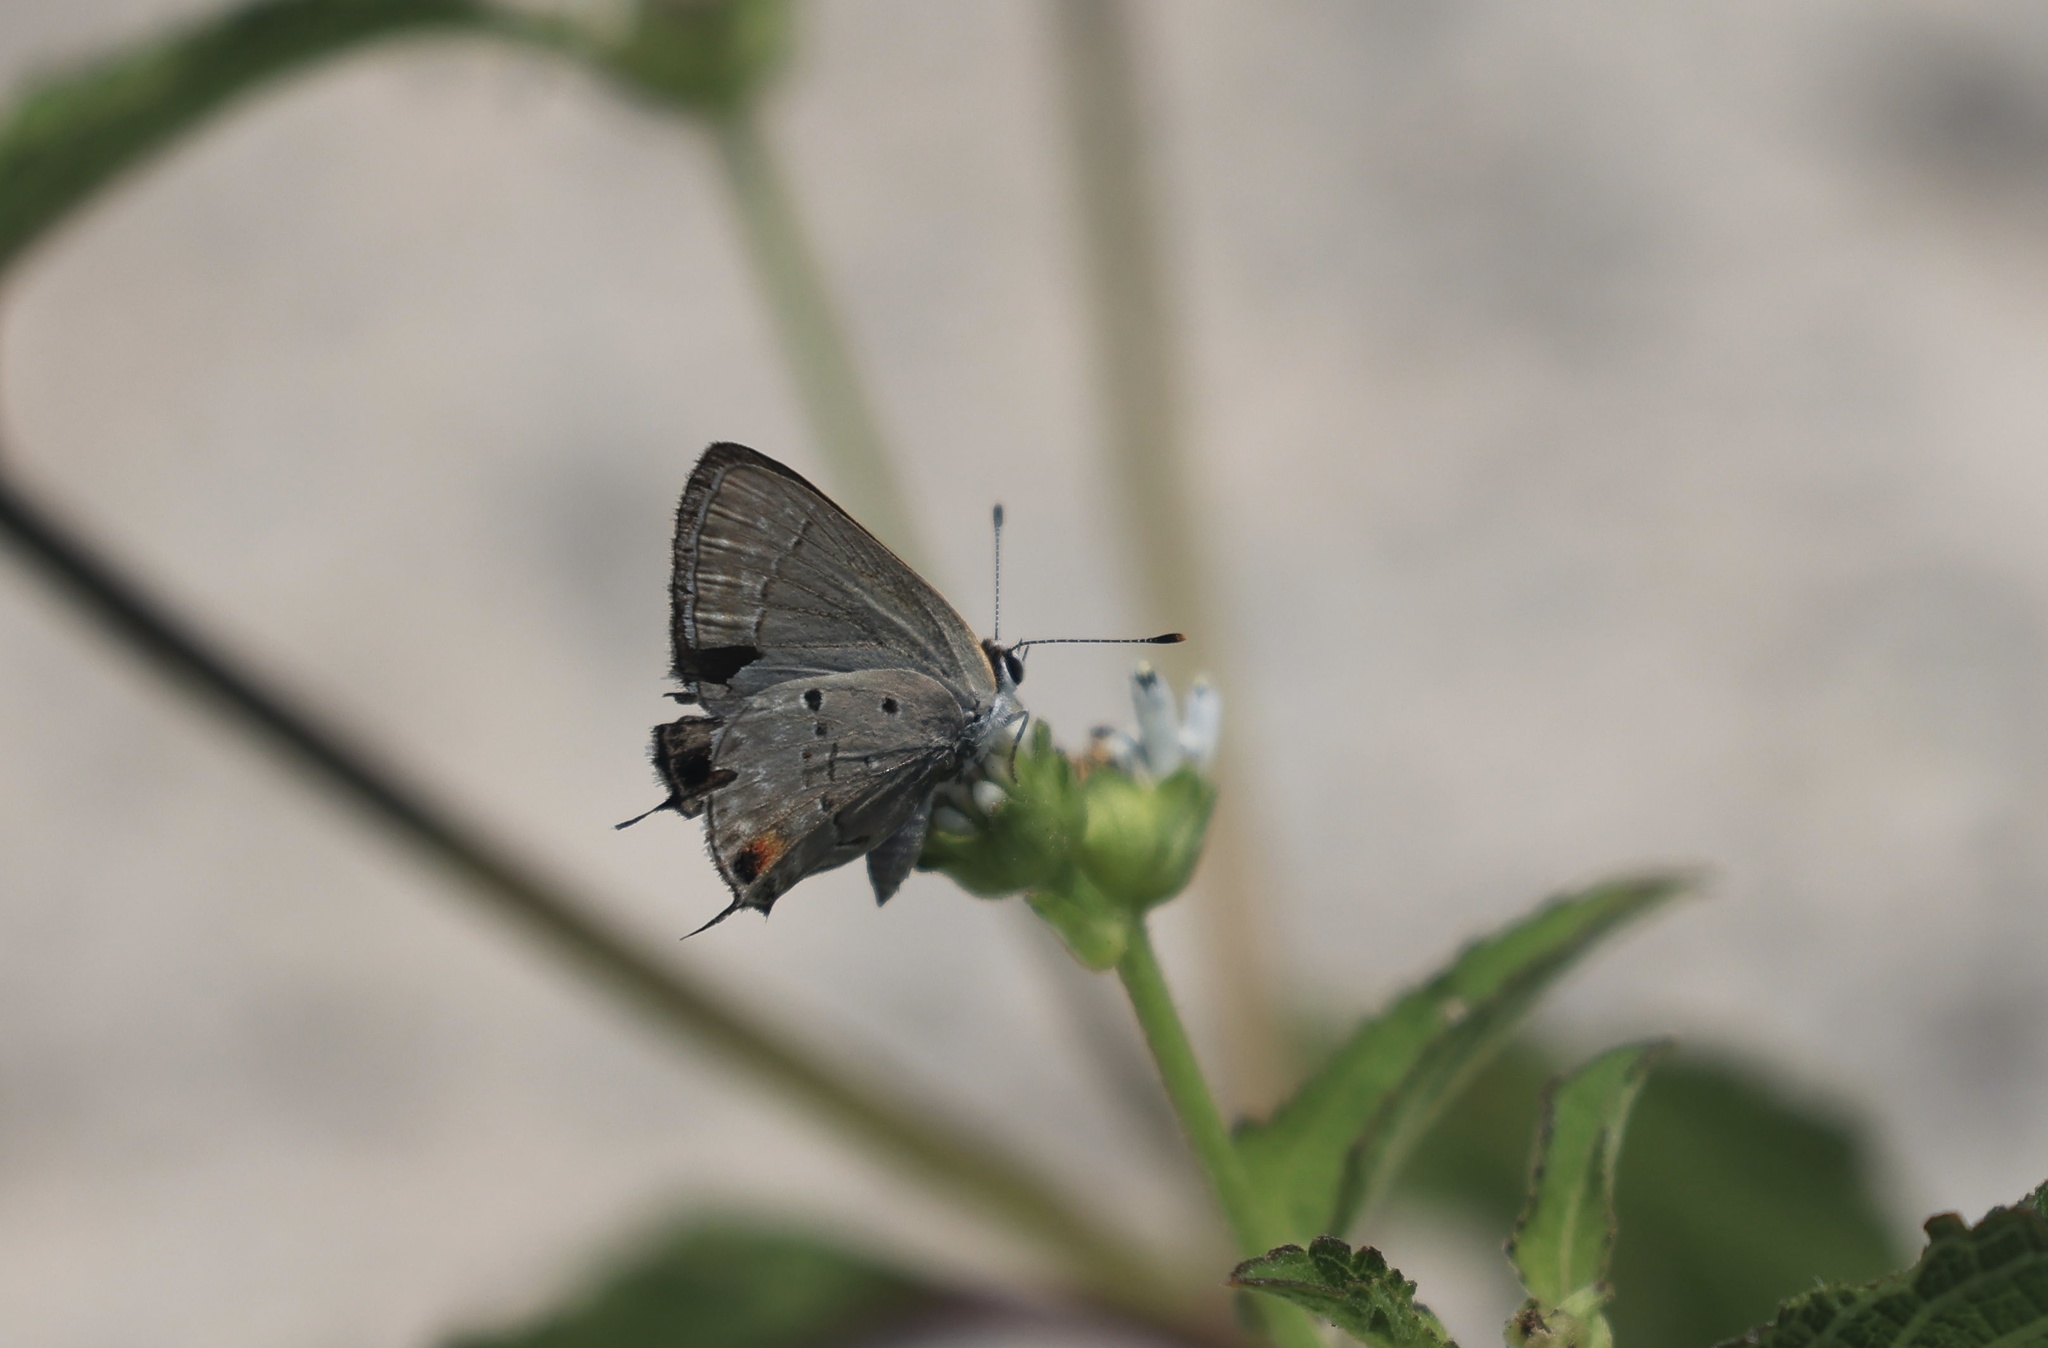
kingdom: Animalia
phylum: Arthropoda
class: Insecta
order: Lepidoptera
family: Lycaenidae
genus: Callicista
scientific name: Callicista columella
